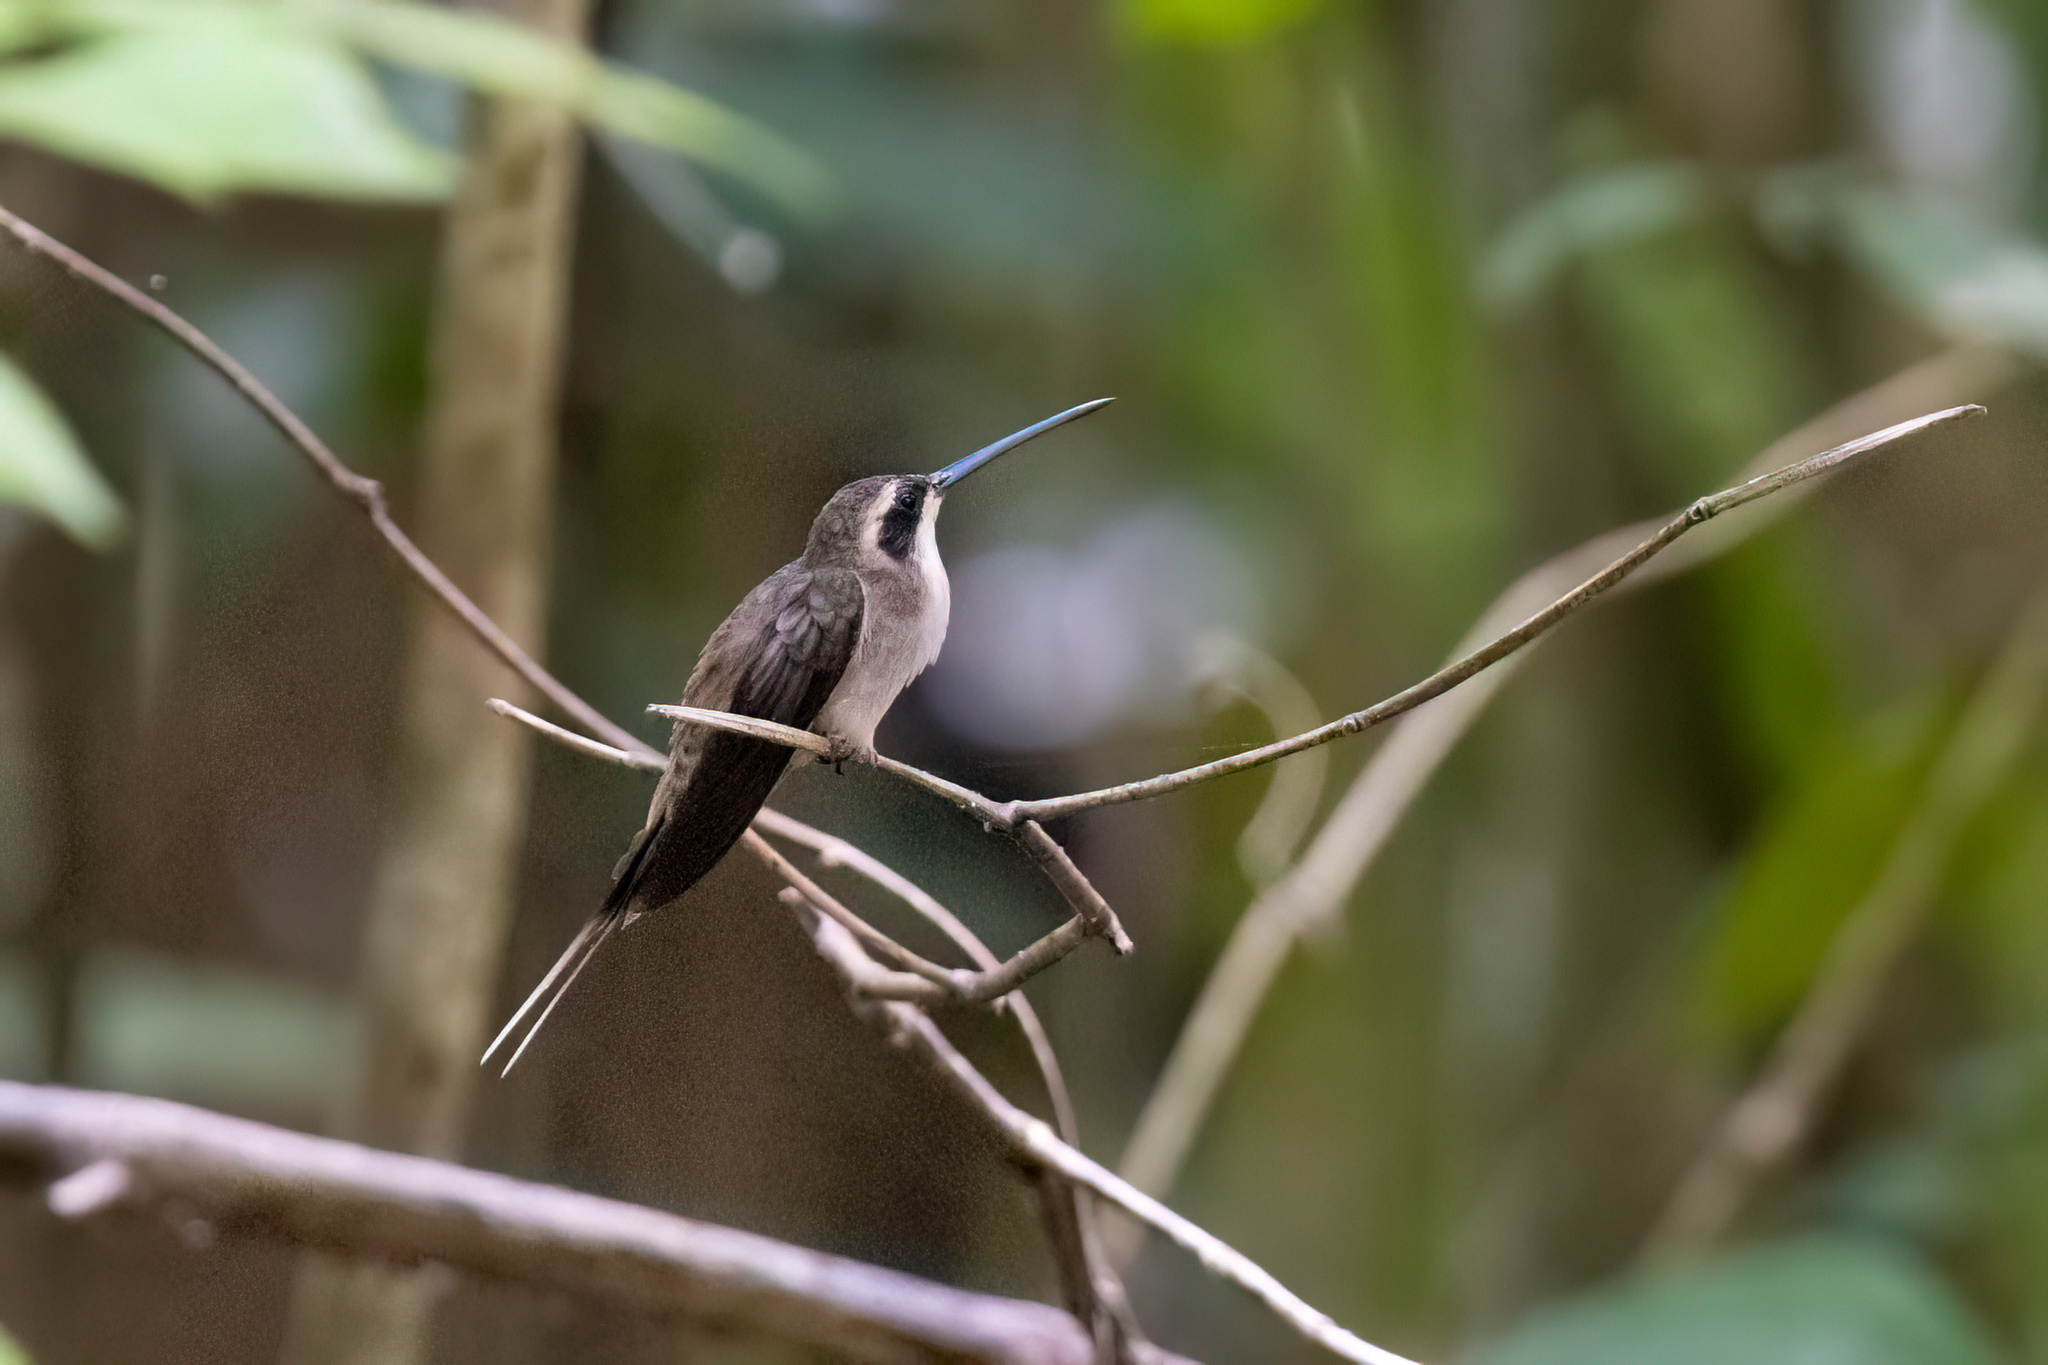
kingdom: Animalia
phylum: Chordata
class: Aves
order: Apodiformes
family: Trochilidae
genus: Phaethornis
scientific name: Phaethornis anthophilus
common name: Pale-bellied hermit
